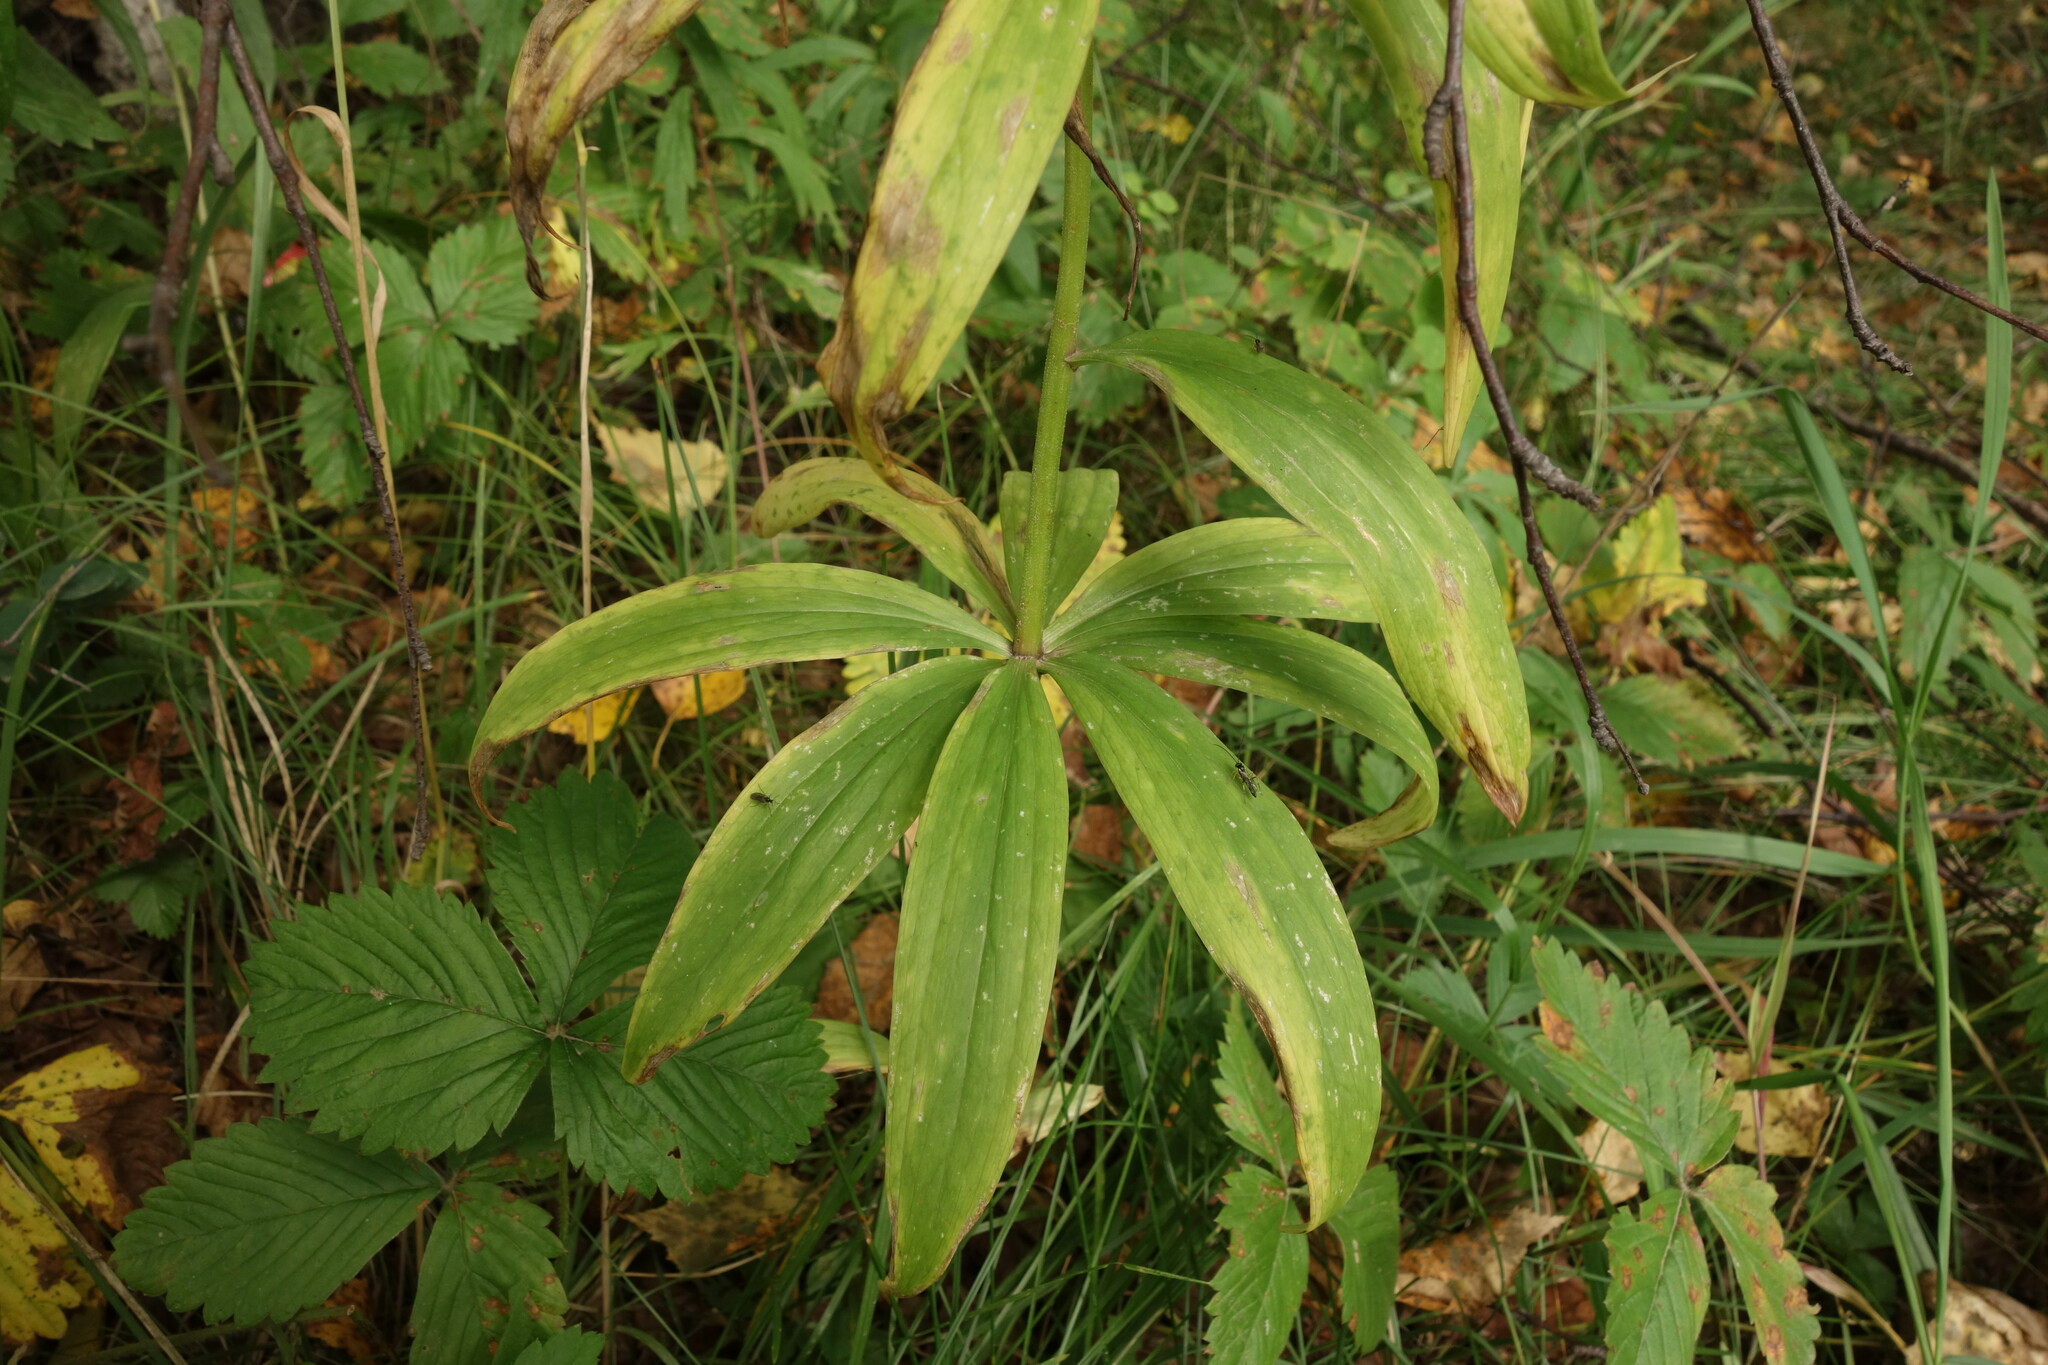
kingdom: Plantae
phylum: Tracheophyta
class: Liliopsida
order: Liliales
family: Liliaceae
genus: Lilium
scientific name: Lilium martagon
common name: Martagon lily
